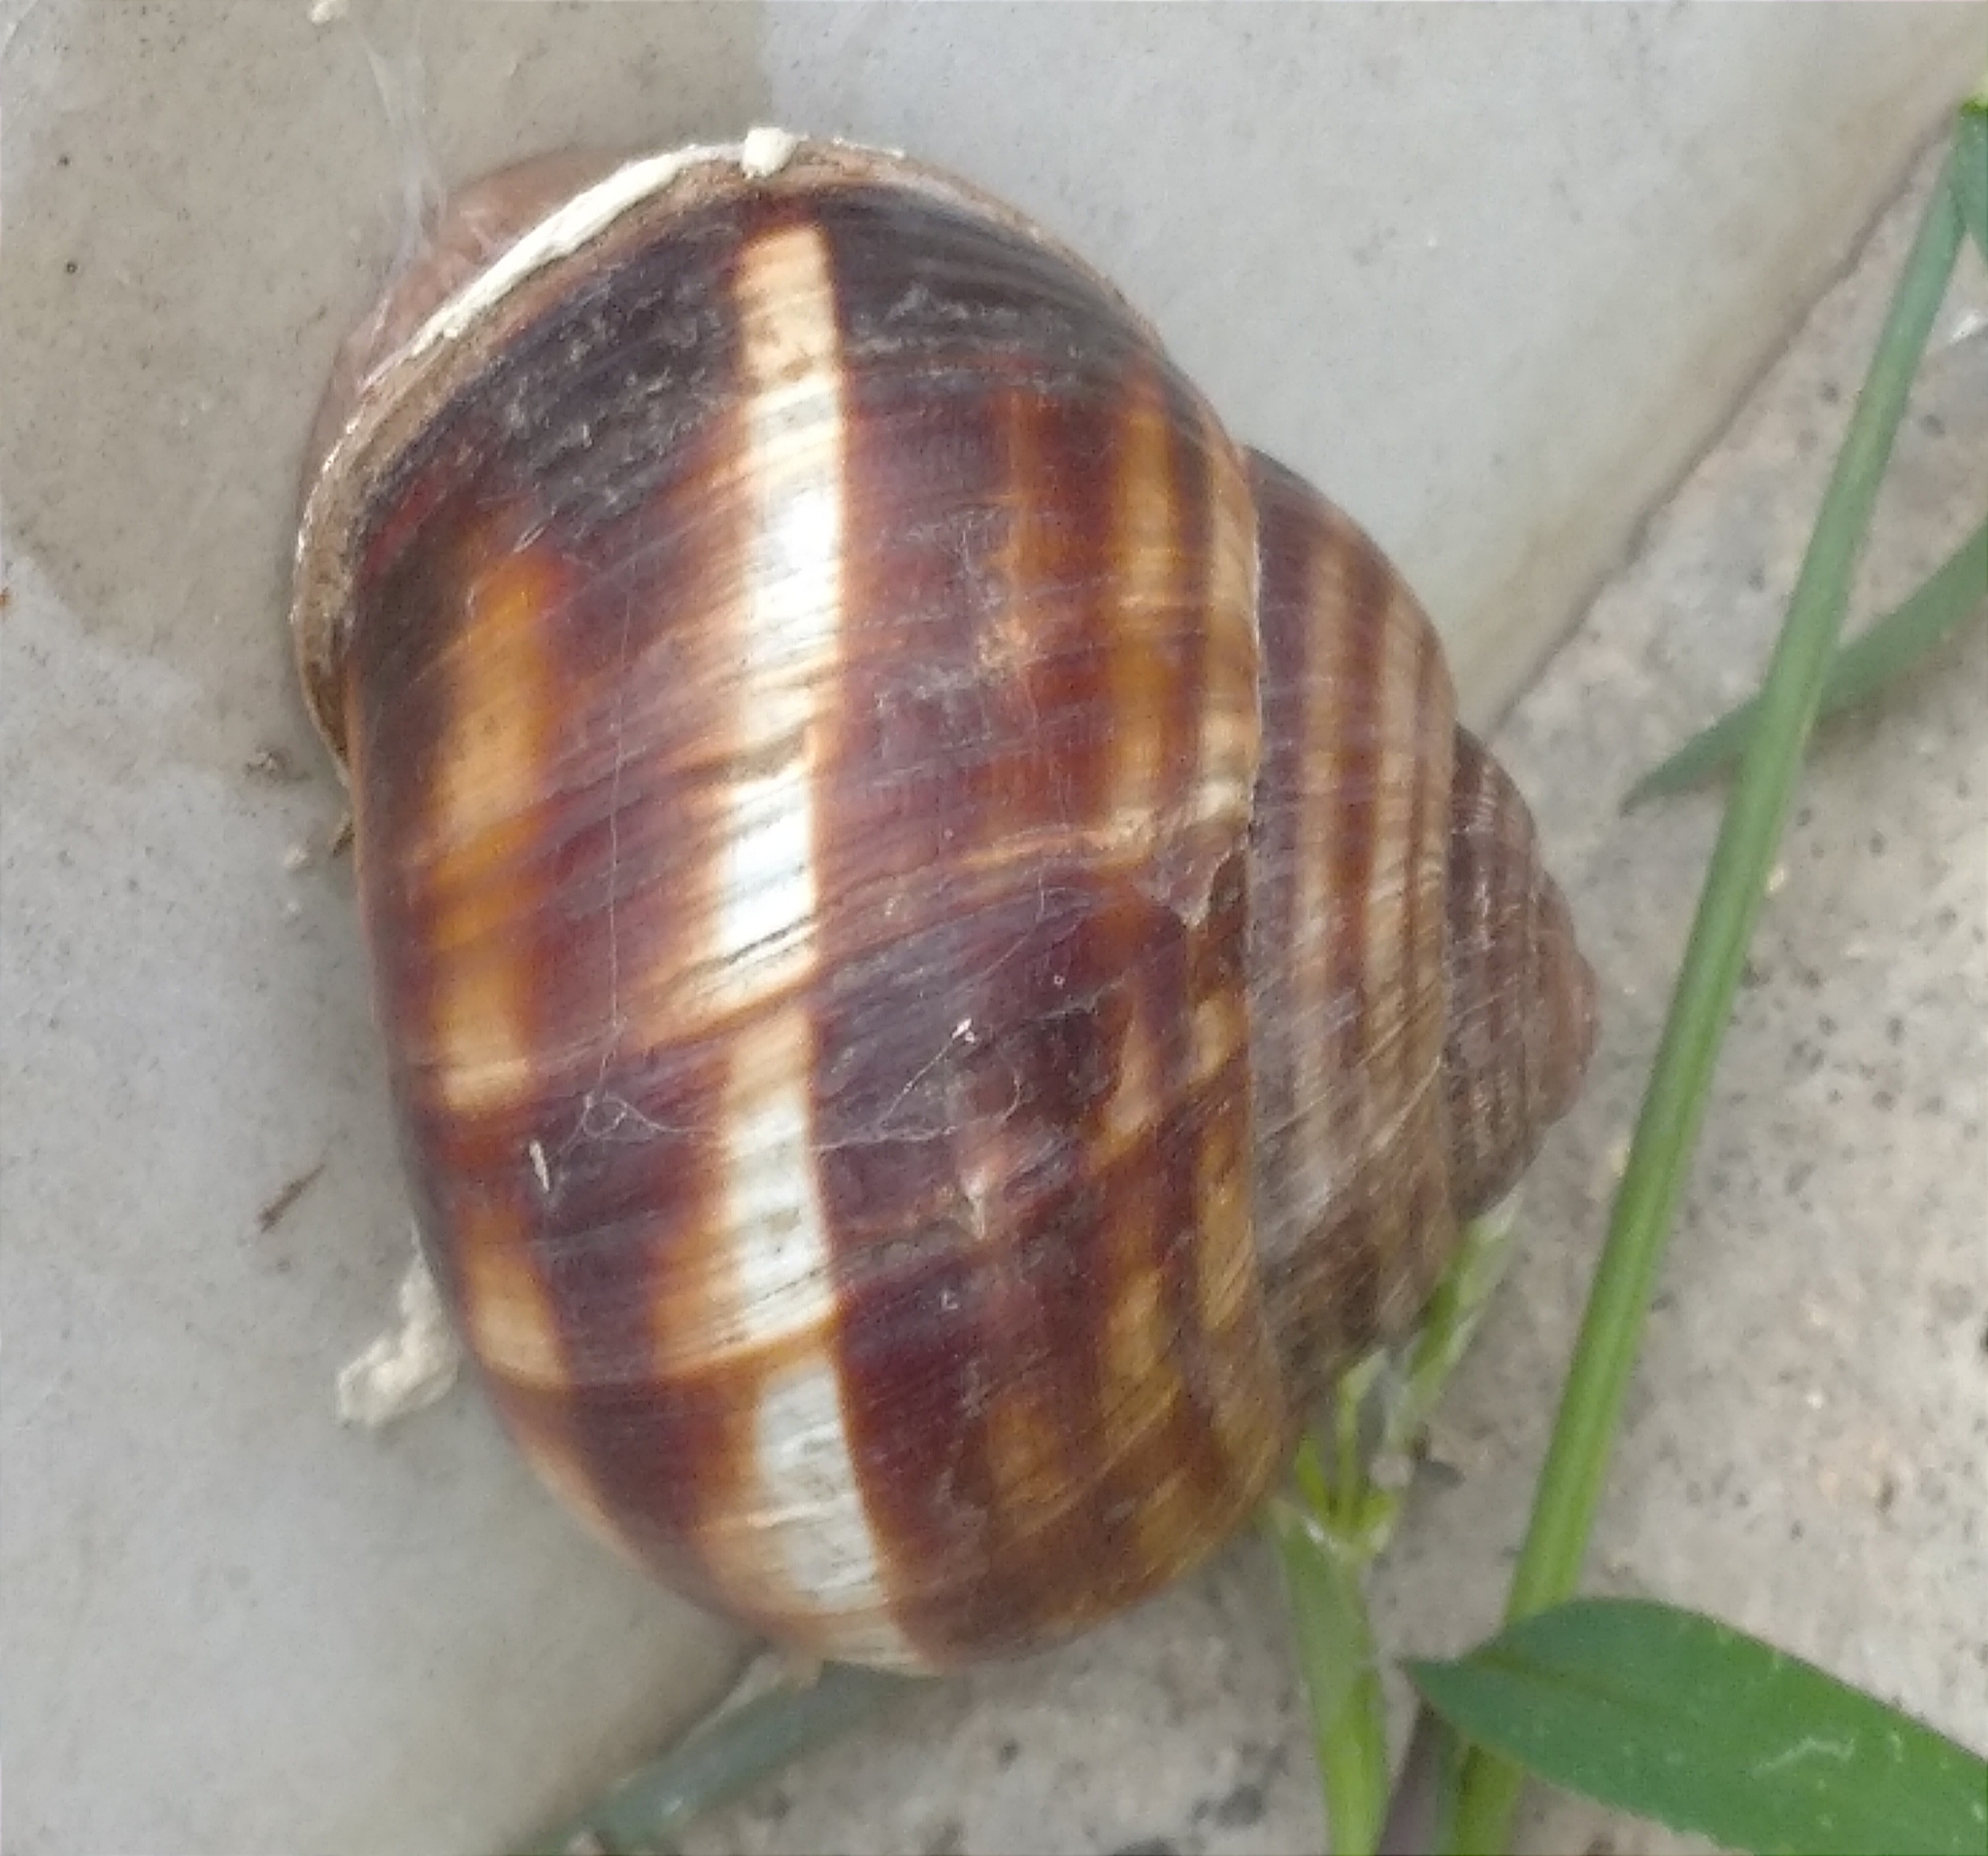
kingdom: Animalia
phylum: Mollusca
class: Gastropoda
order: Stylommatophora
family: Helicidae
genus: Helix
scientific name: Helix lucorum
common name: Turkish snail
